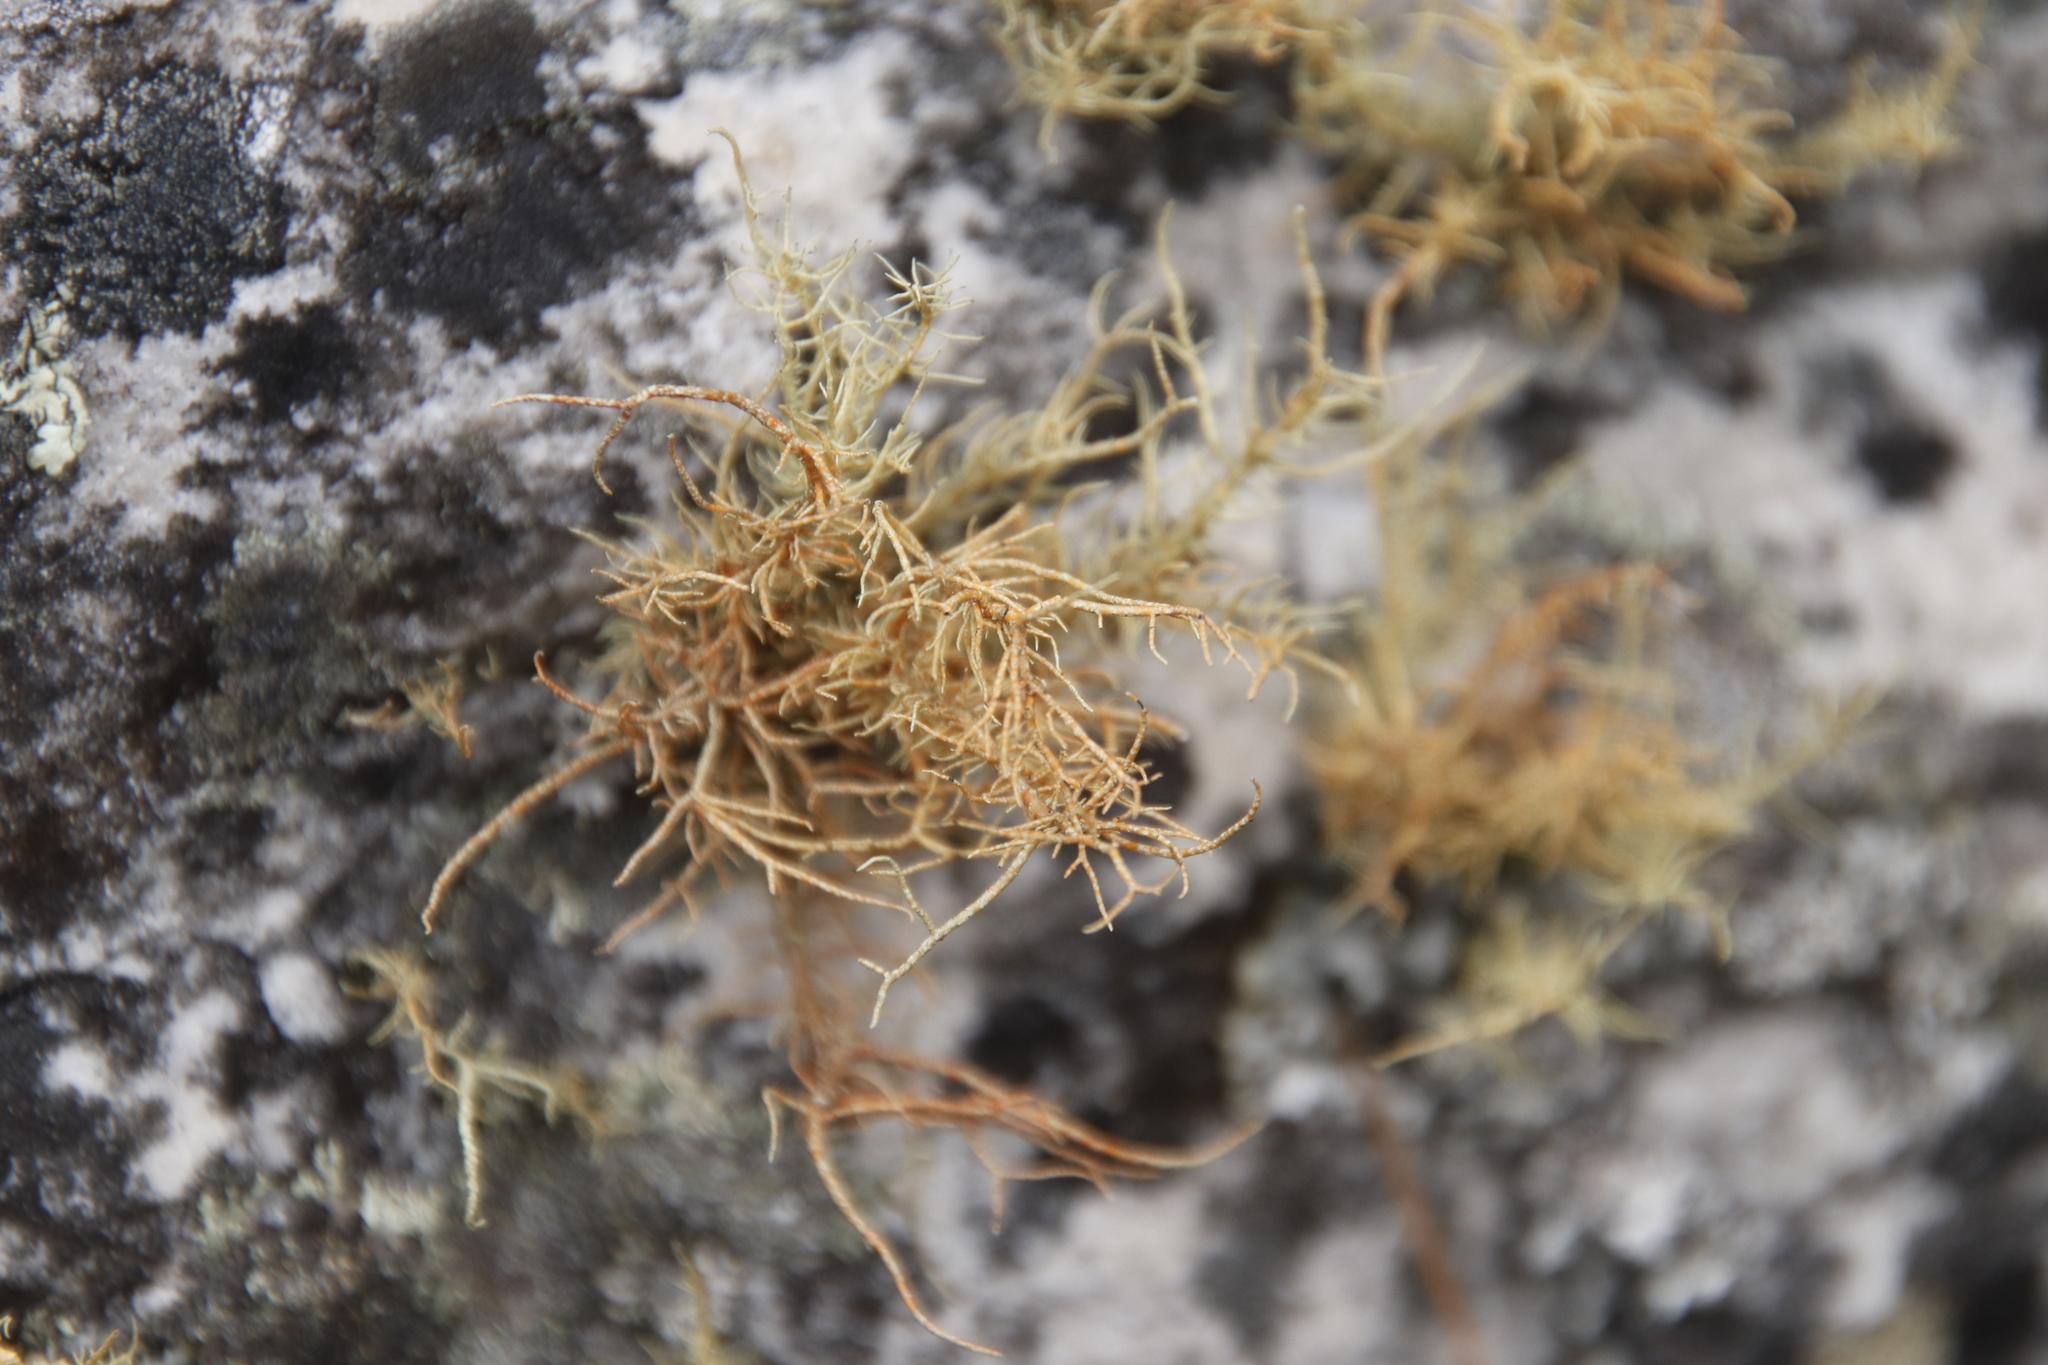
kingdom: Fungi
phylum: Ascomycota
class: Lecanoromycetes
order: Lecanorales
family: Parmeliaceae
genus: Usnea
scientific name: Usnea maculata
